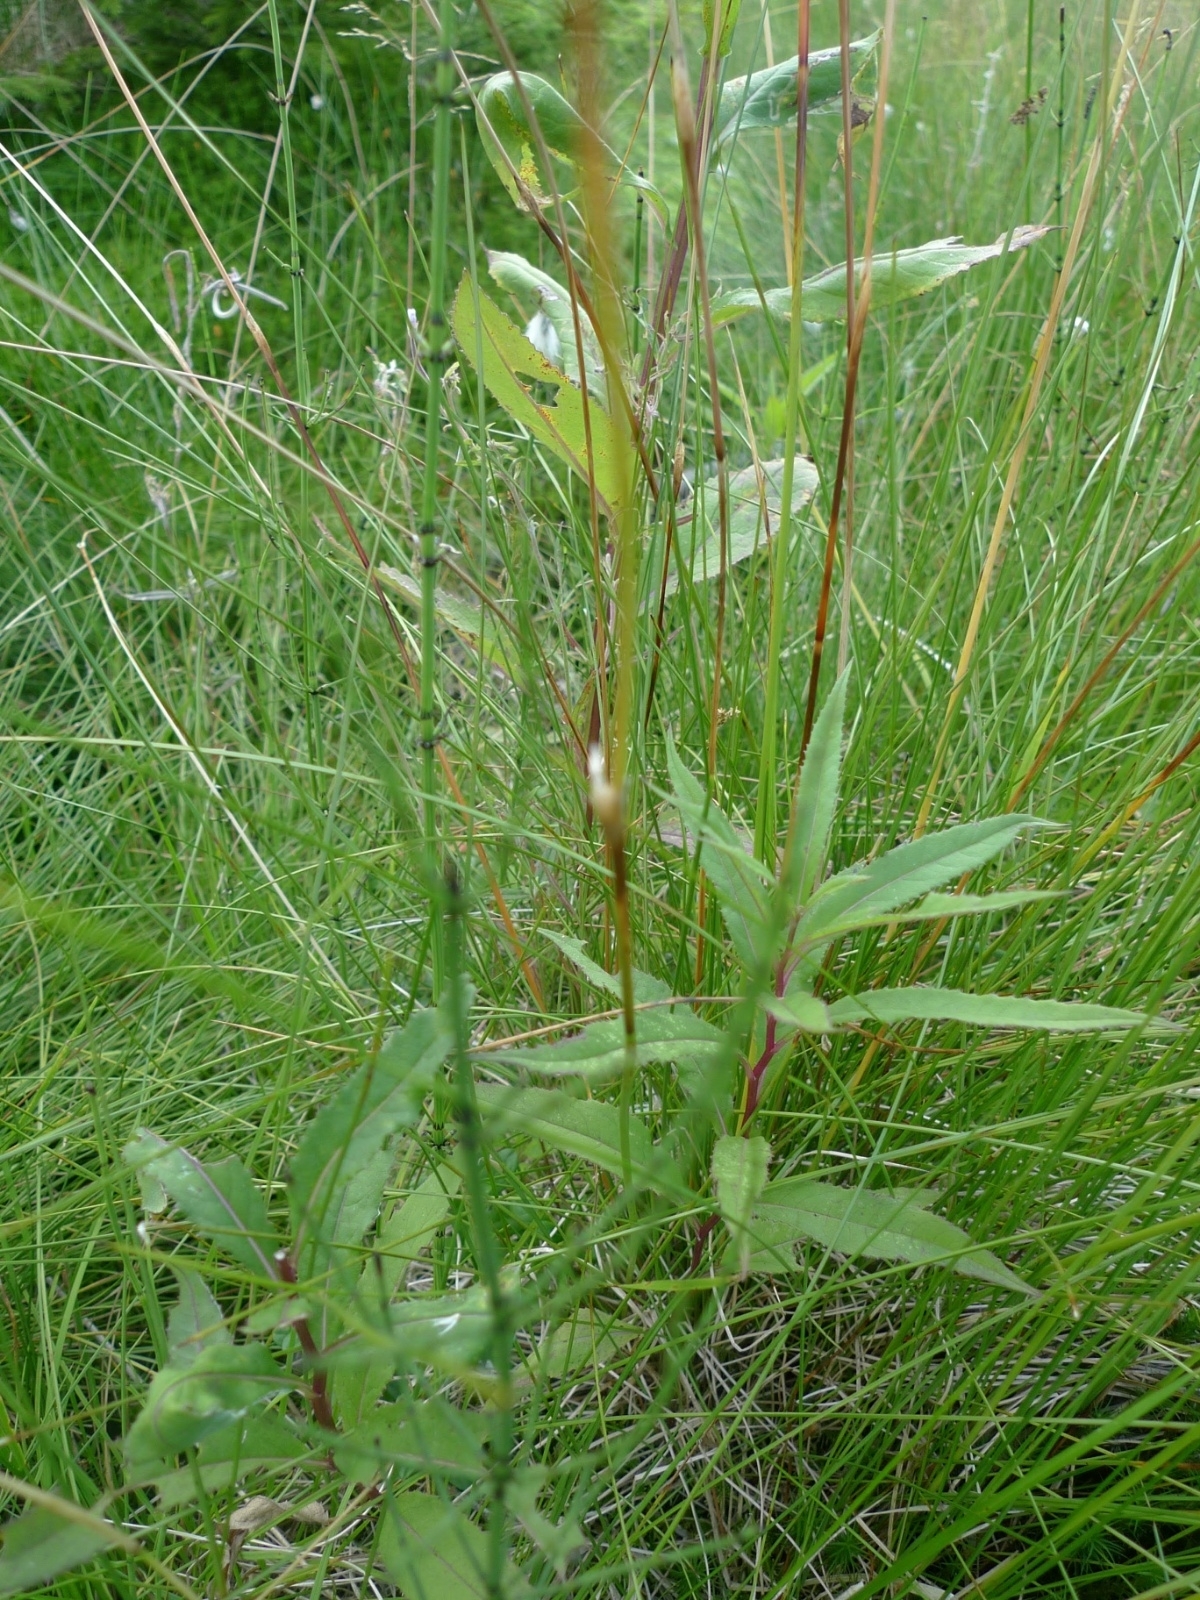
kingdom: Plantae
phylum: Tracheophyta
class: Liliopsida
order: Poales
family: Cyperaceae
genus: Eriophorum
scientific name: Eriophorum vaginatum
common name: Hare's-tail cottongrass
